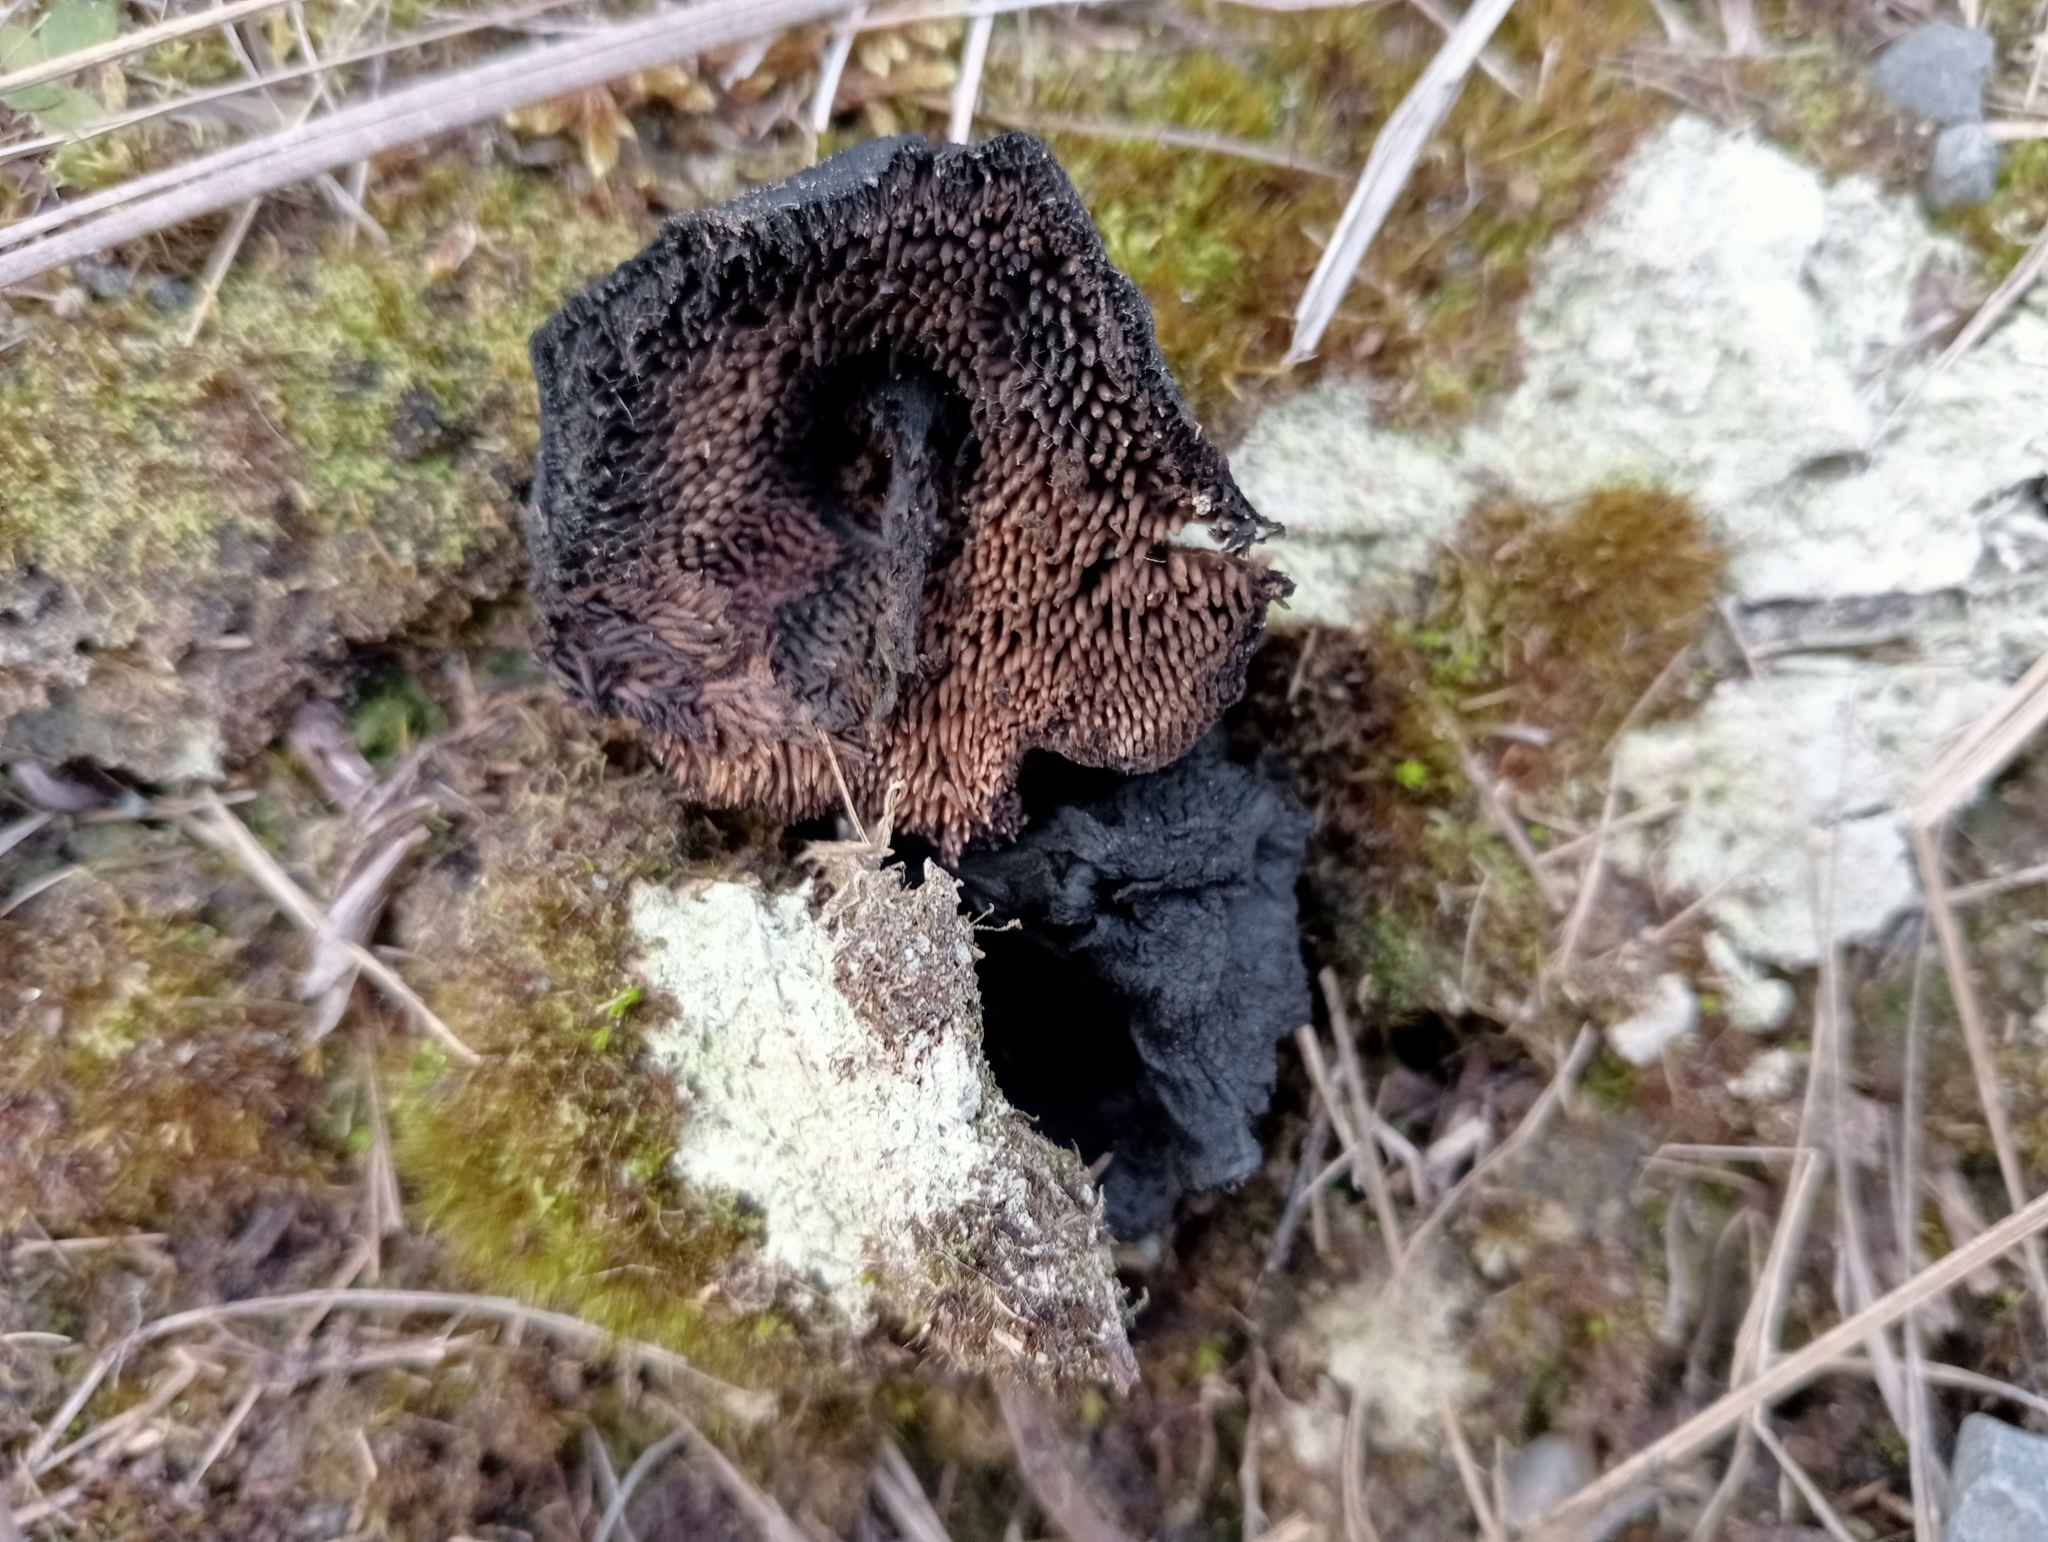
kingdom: Fungi
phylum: Basidiomycota
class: Agaricomycetes
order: Thelephorales
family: Bankeraceae
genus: Sarcodon
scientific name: Sarcodon carbonarius
